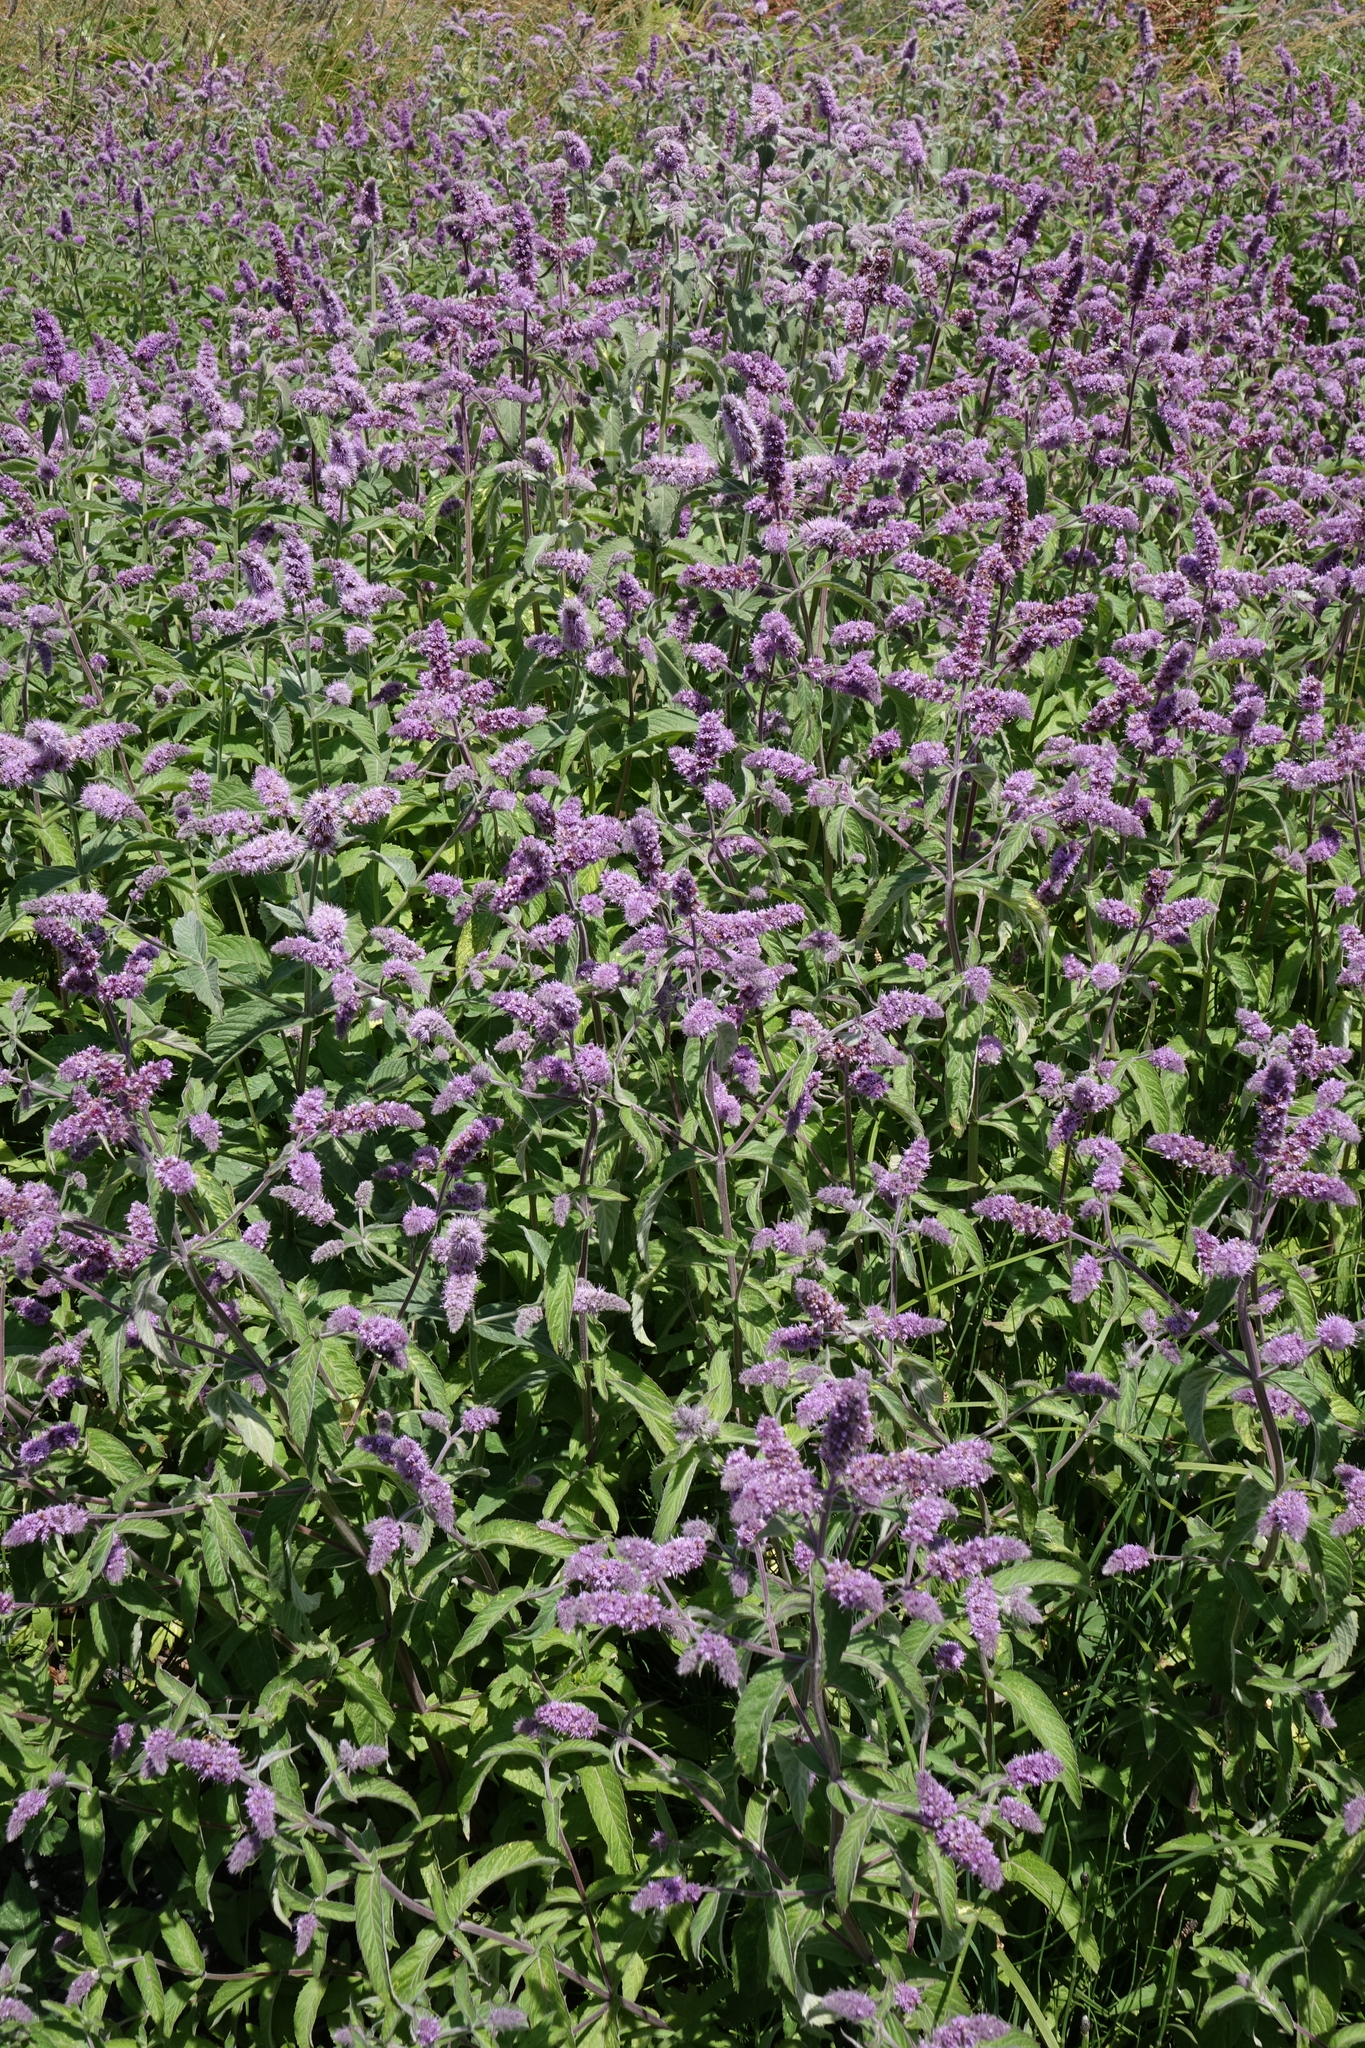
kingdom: Plantae
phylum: Tracheophyta
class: Magnoliopsida
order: Lamiales
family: Lamiaceae
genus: Mentha
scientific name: Mentha longifolia
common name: Horse mint
